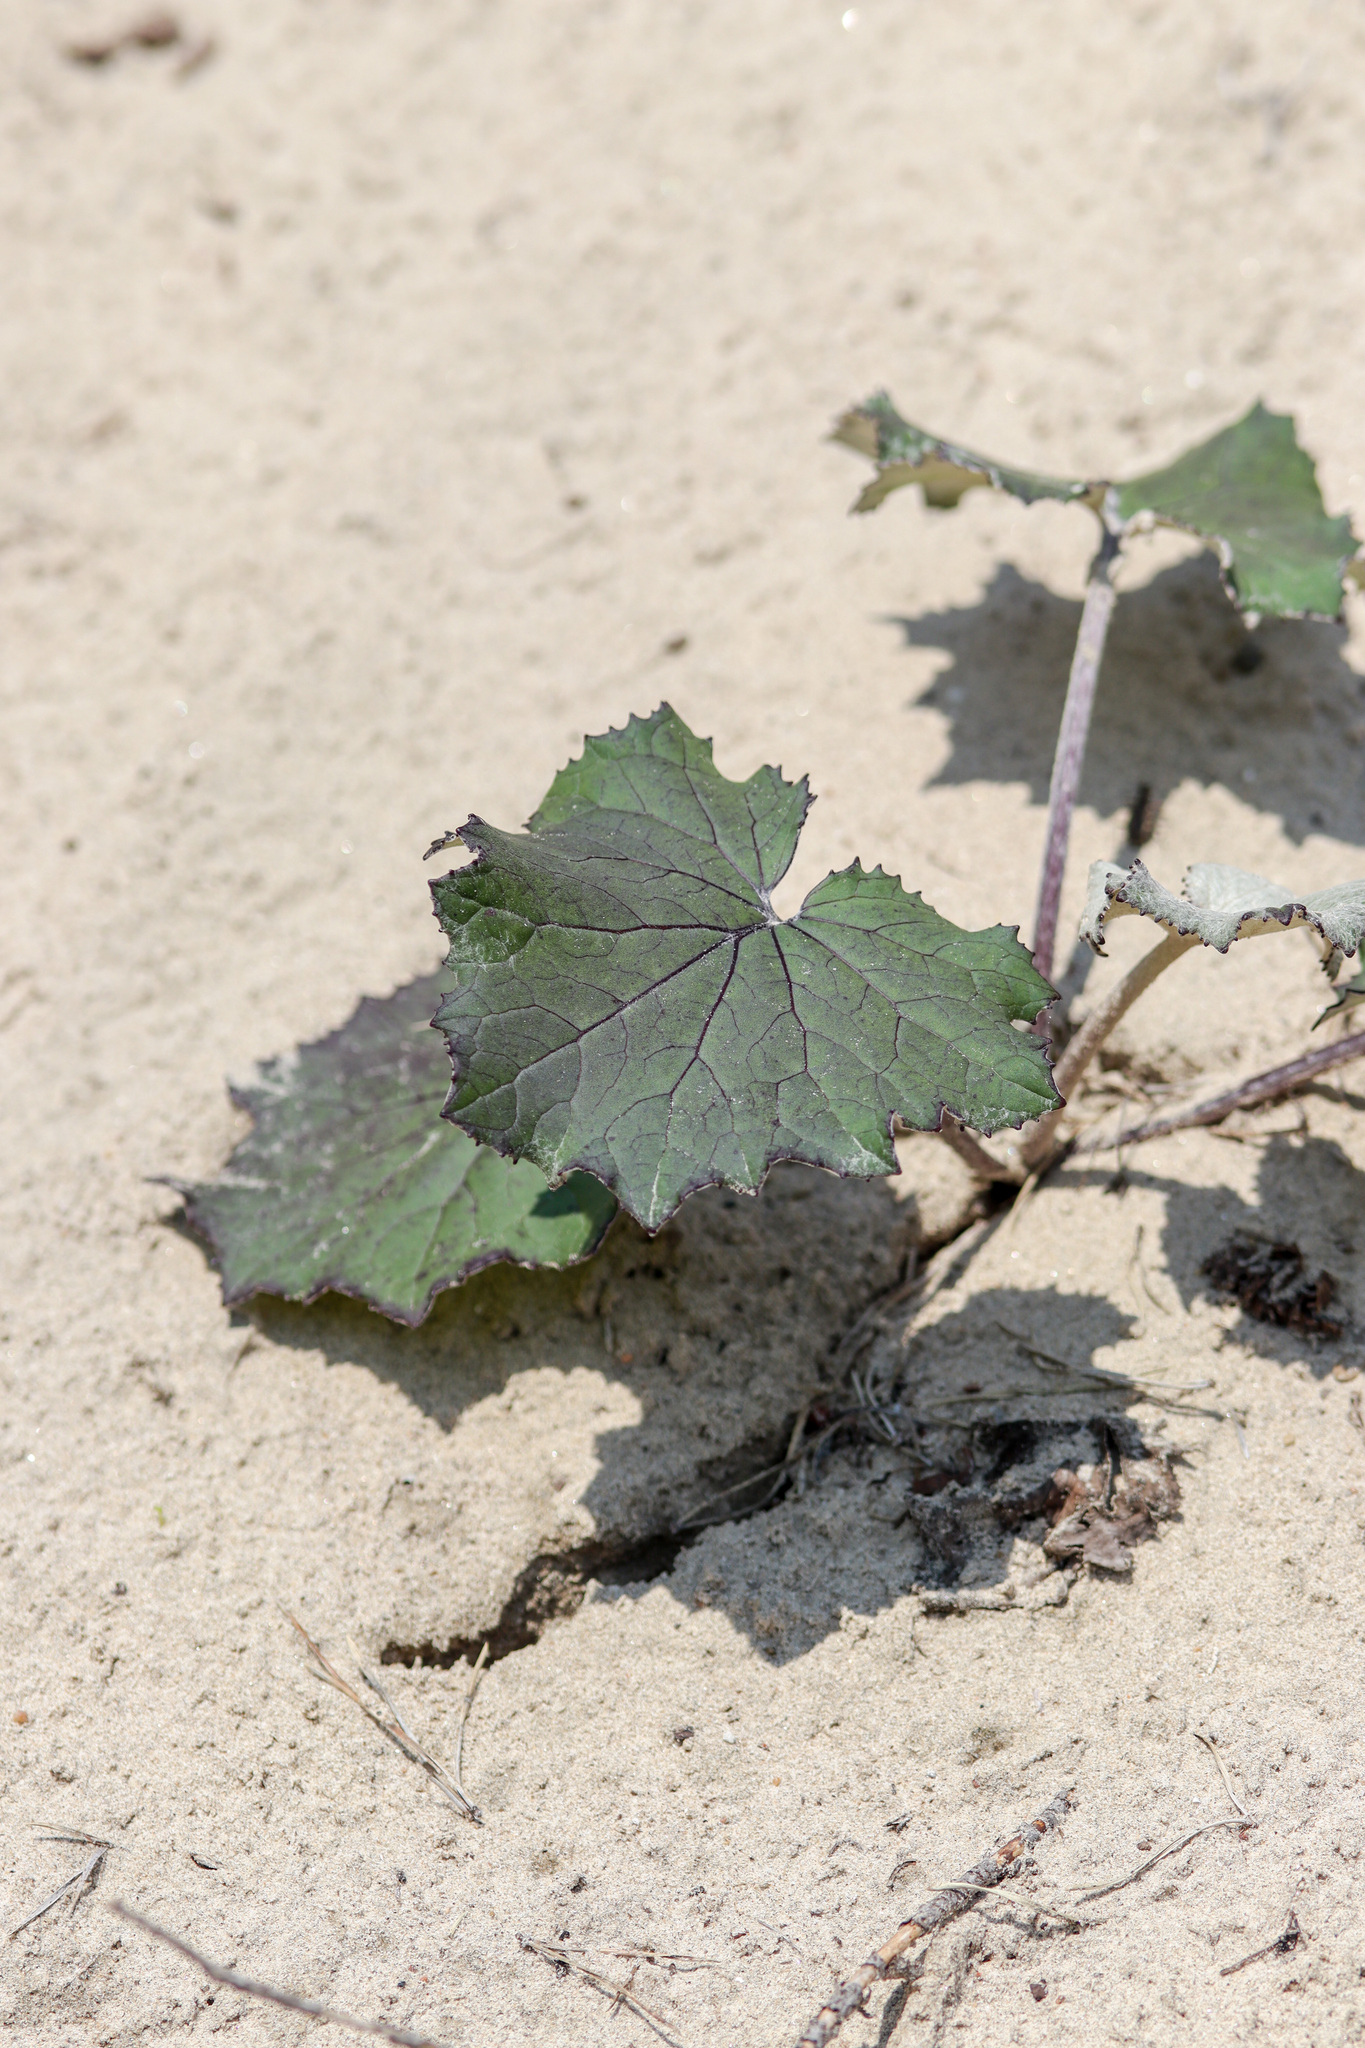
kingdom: Plantae
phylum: Tracheophyta
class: Magnoliopsida
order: Asterales
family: Asteraceae
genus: Tussilago
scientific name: Tussilago farfara
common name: Coltsfoot
